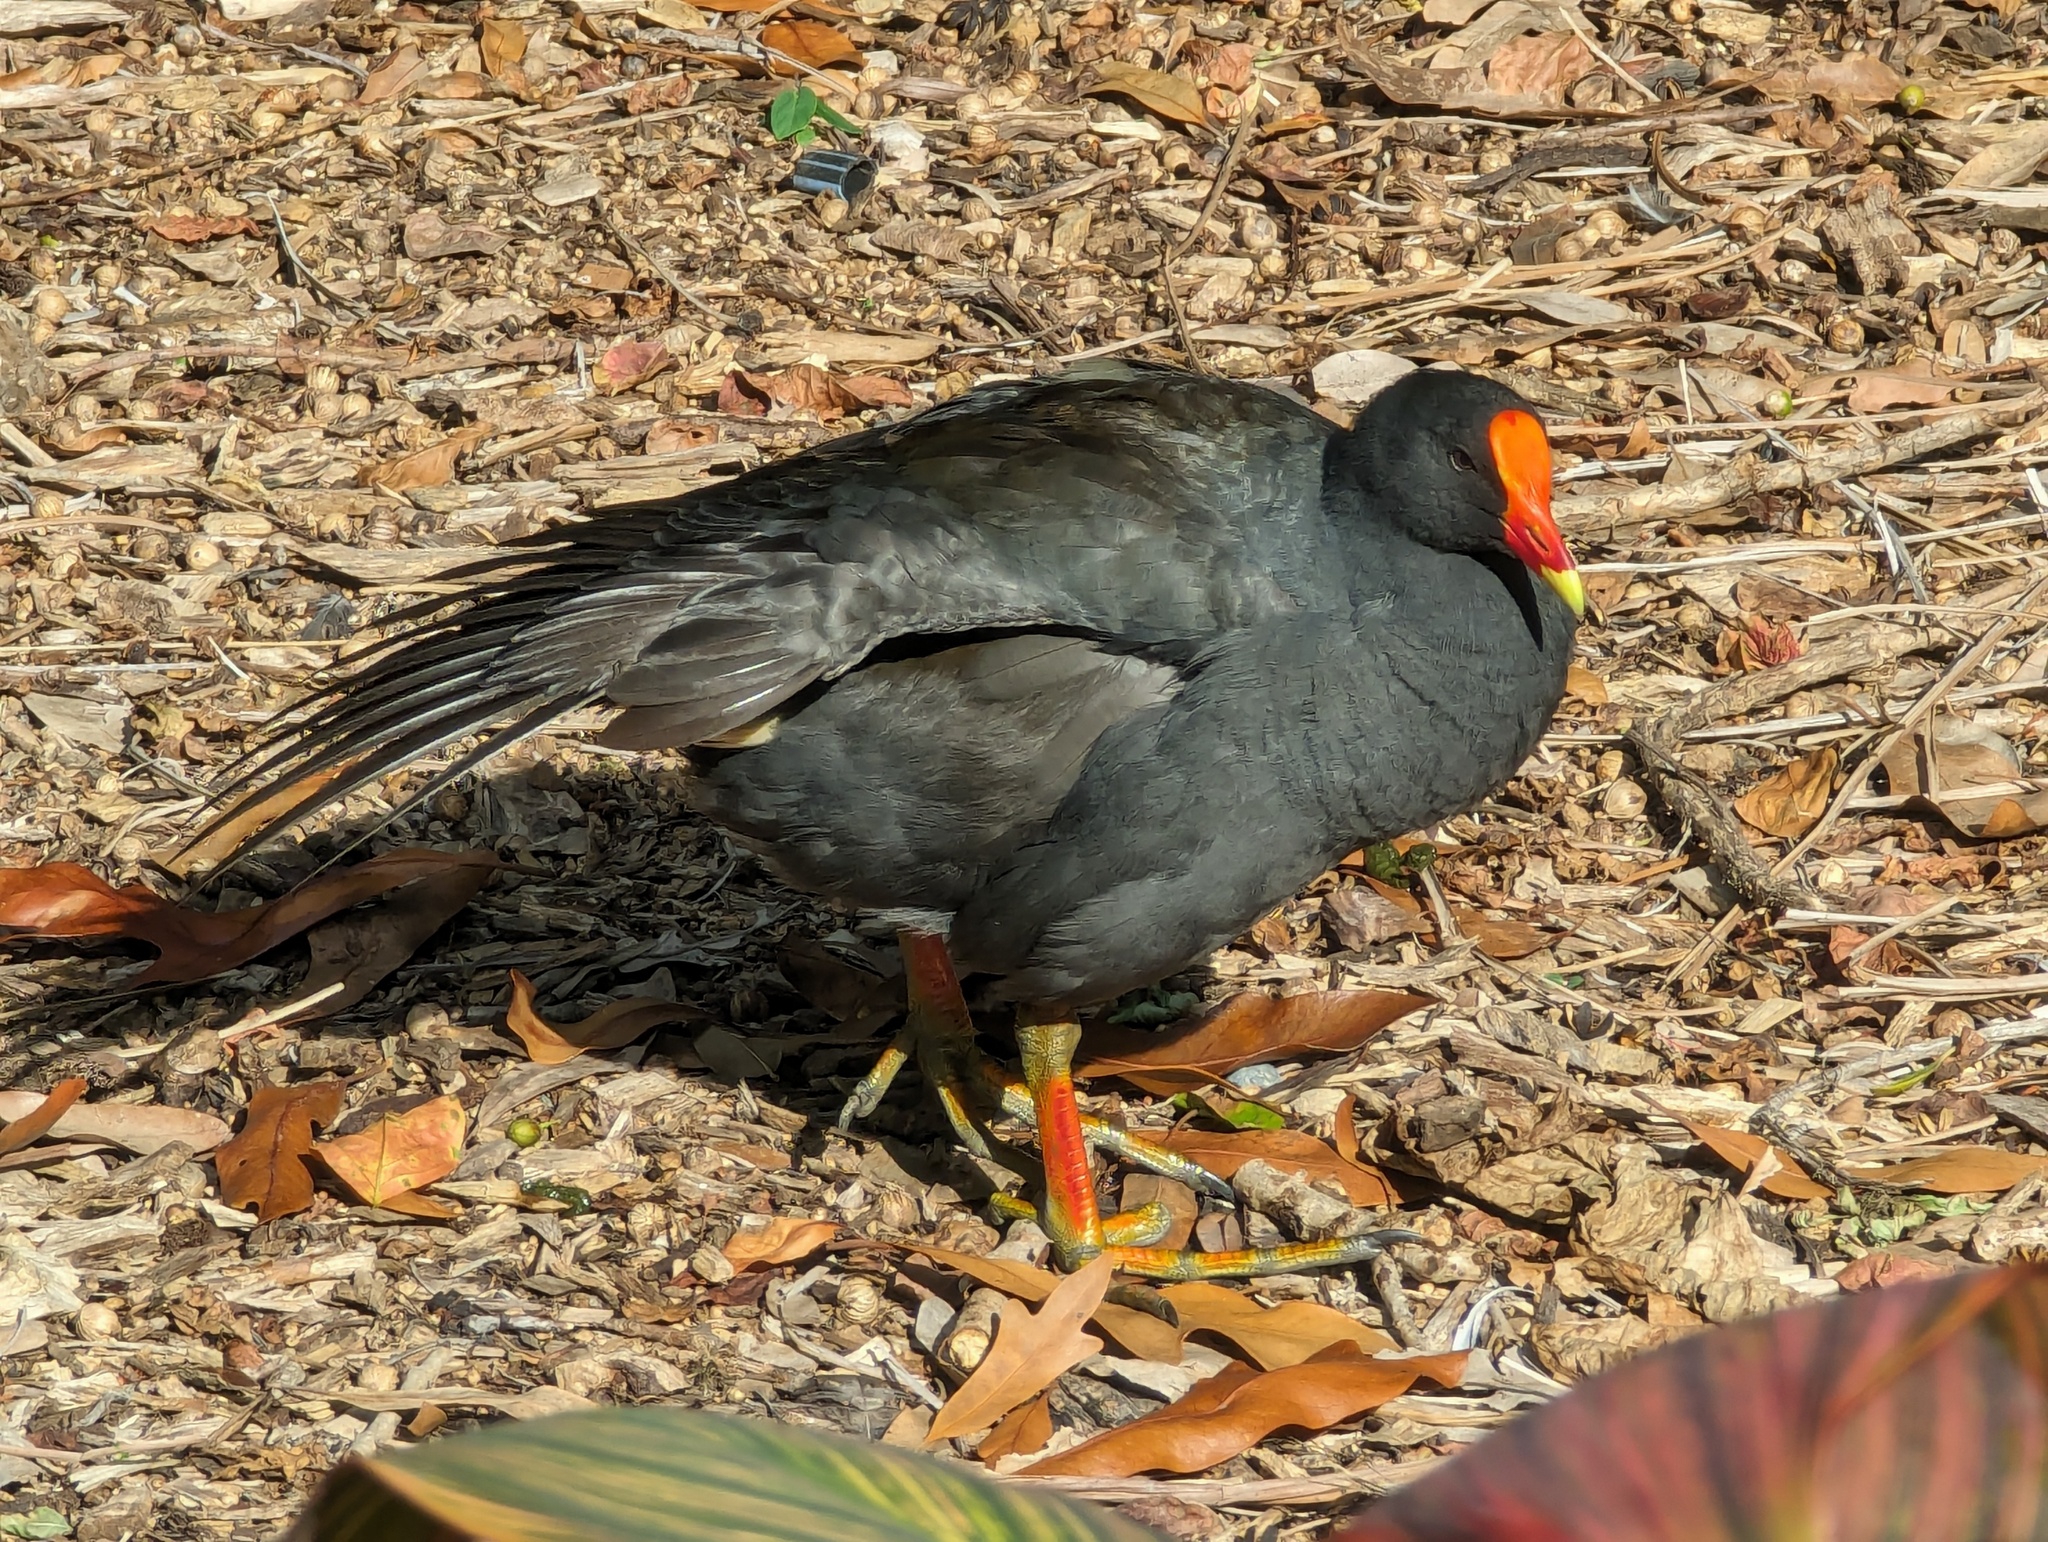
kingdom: Animalia
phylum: Chordata
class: Aves
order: Gruiformes
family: Rallidae
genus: Gallinula
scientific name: Gallinula tenebrosa
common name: Dusky moorhen
